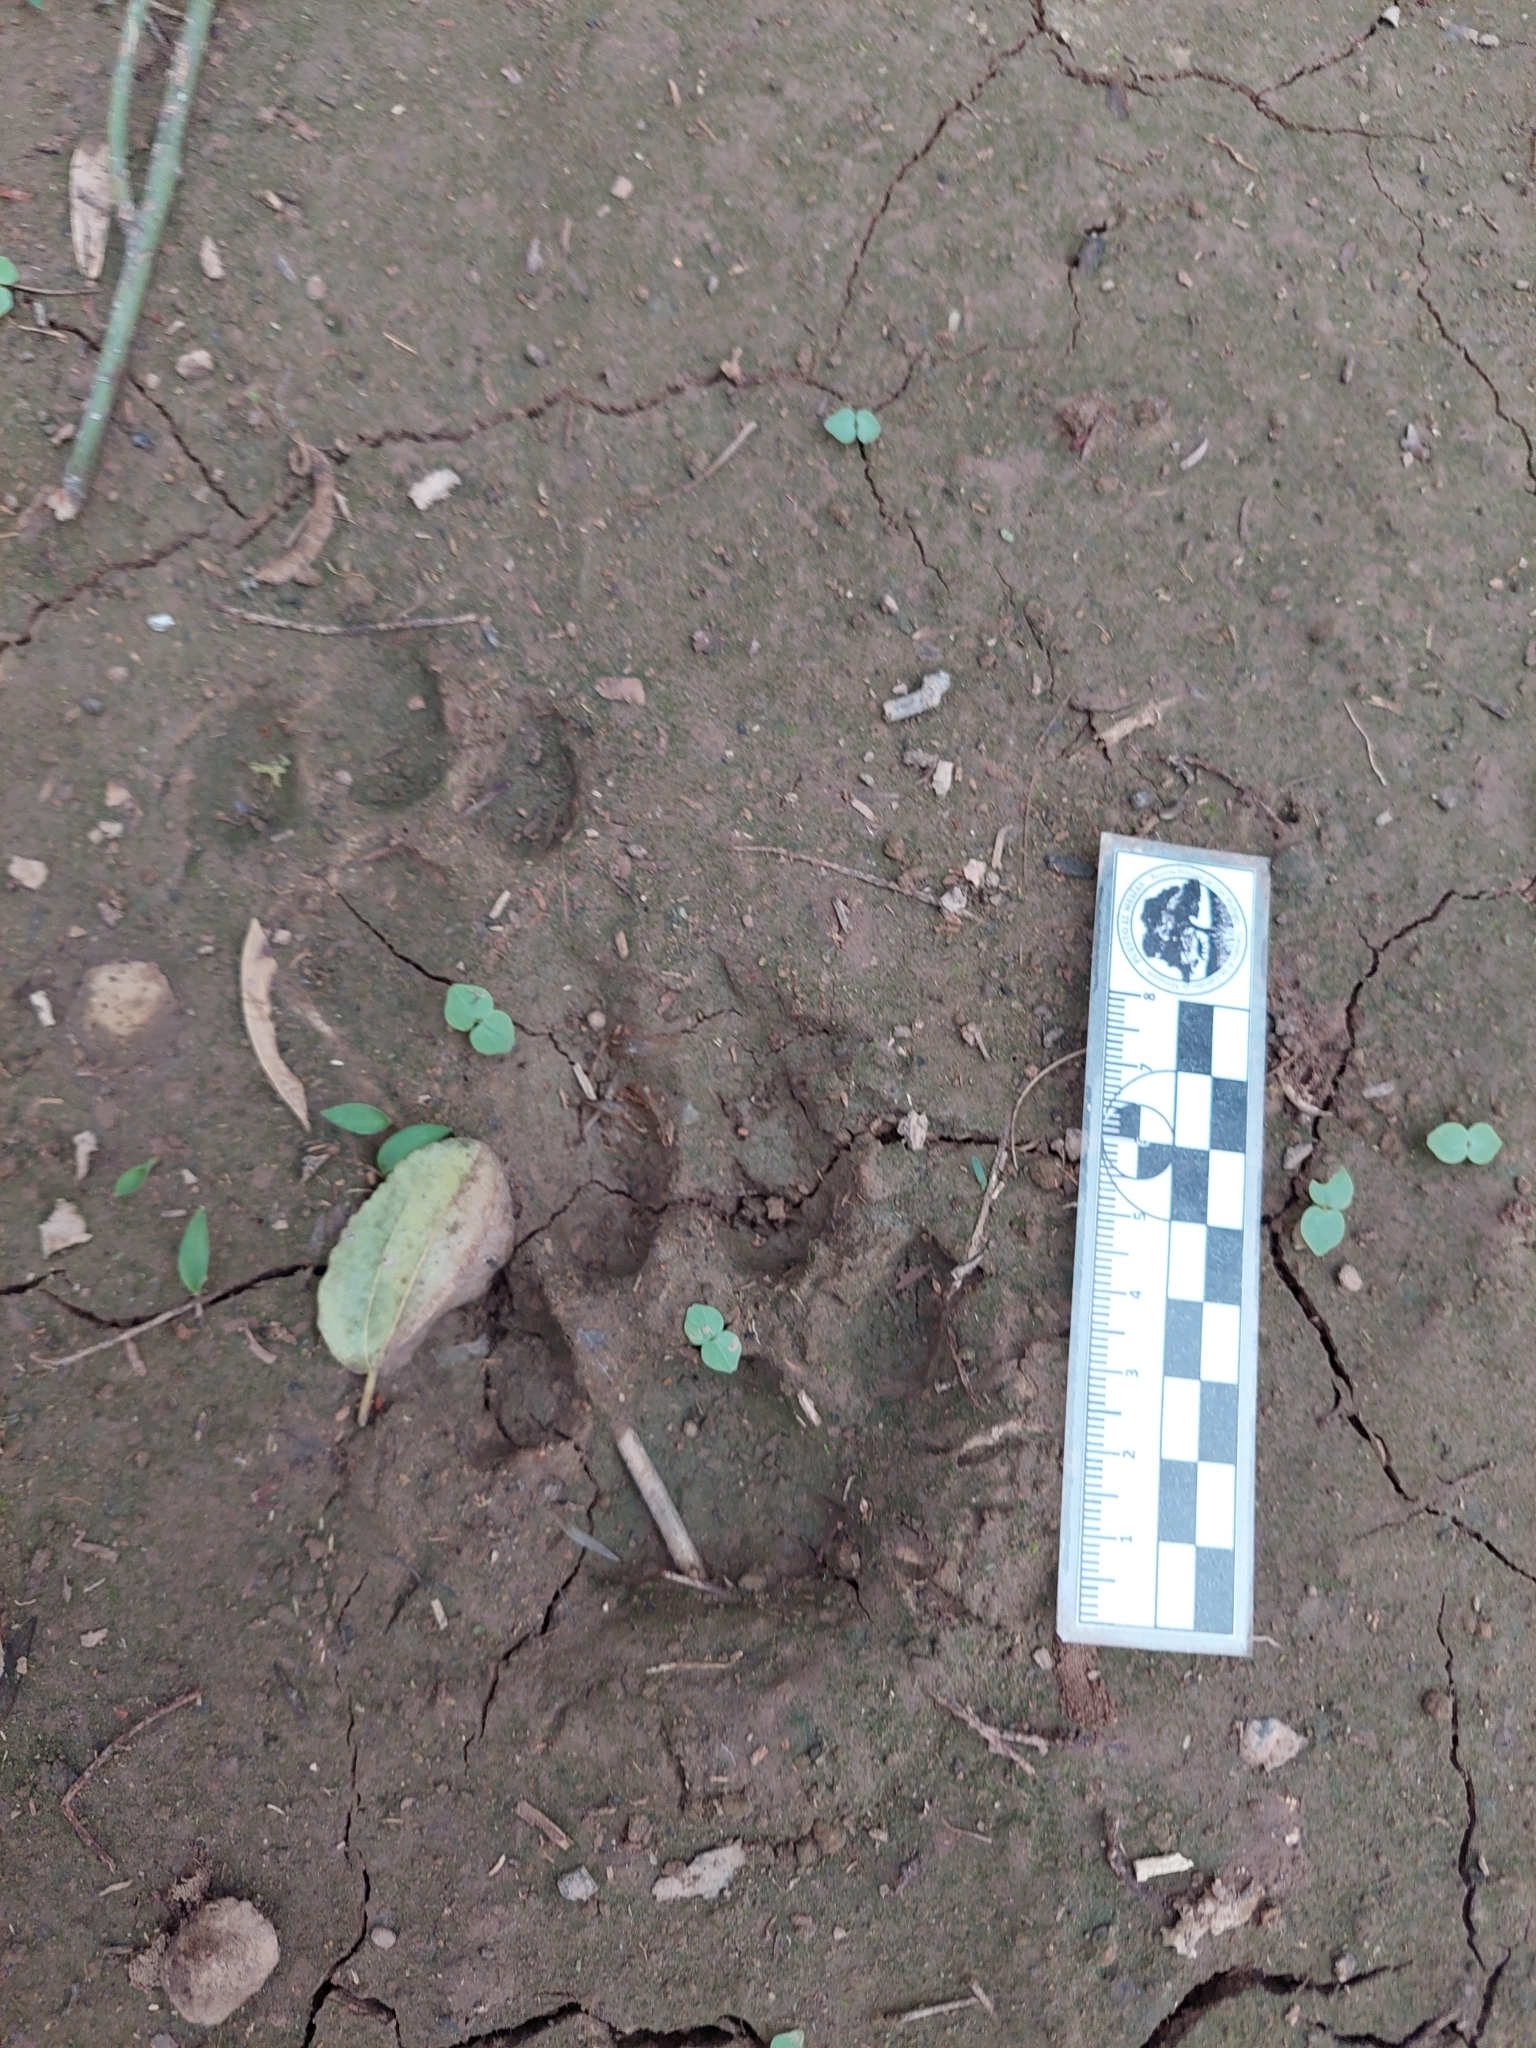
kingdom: Animalia
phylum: Chordata
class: Mammalia
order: Carnivora
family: Felidae
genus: Puma
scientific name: Puma concolor
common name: Puma
